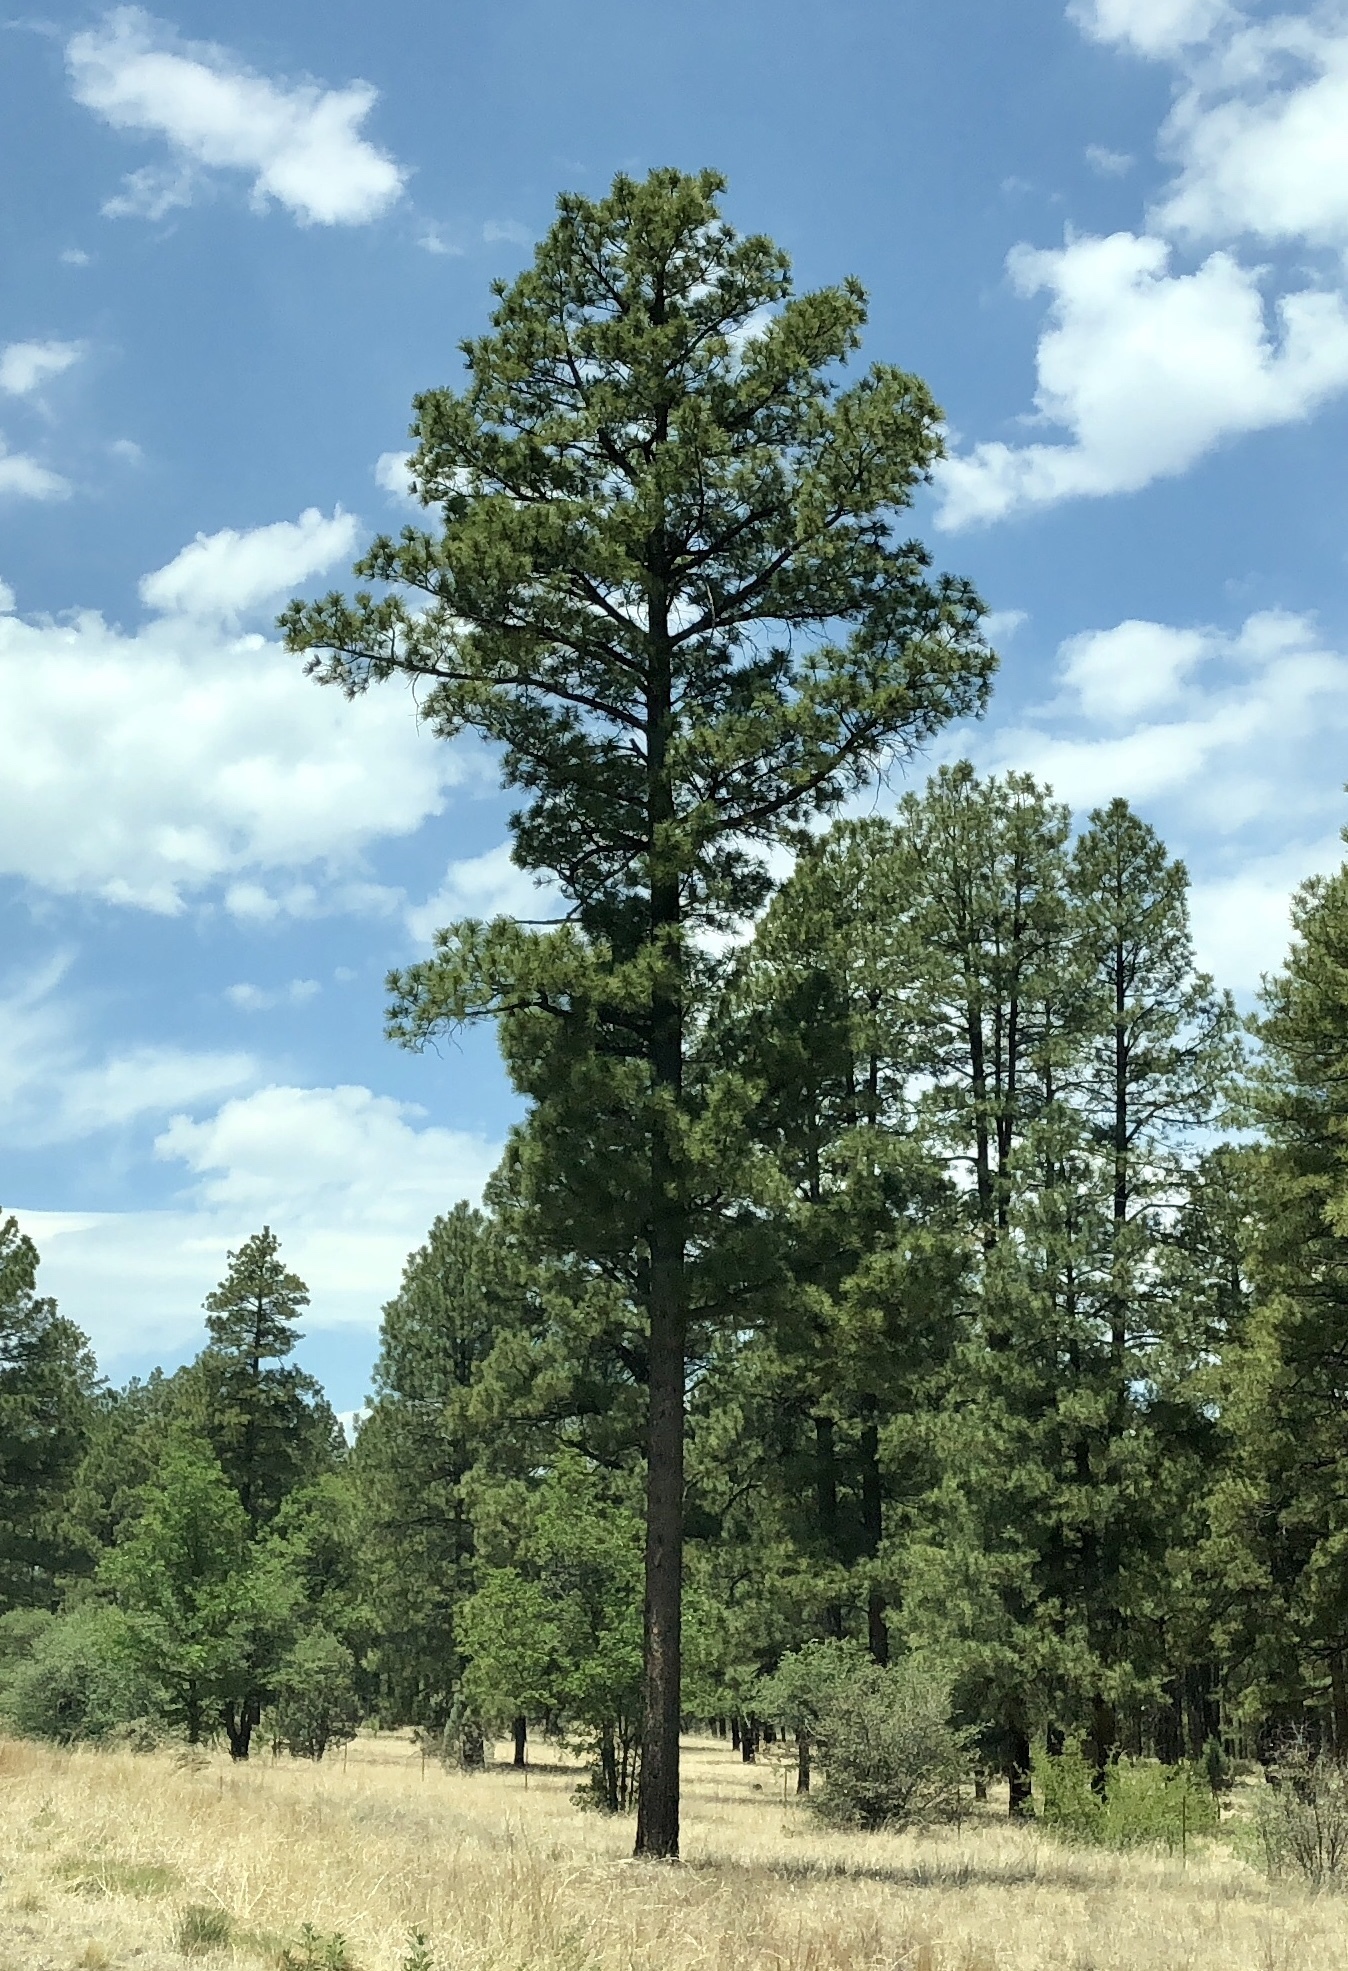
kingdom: Plantae
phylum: Tracheophyta
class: Pinopsida
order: Pinales
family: Pinaceae
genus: Pinus
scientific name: Pinus ponderosa
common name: Western yellow-pine
